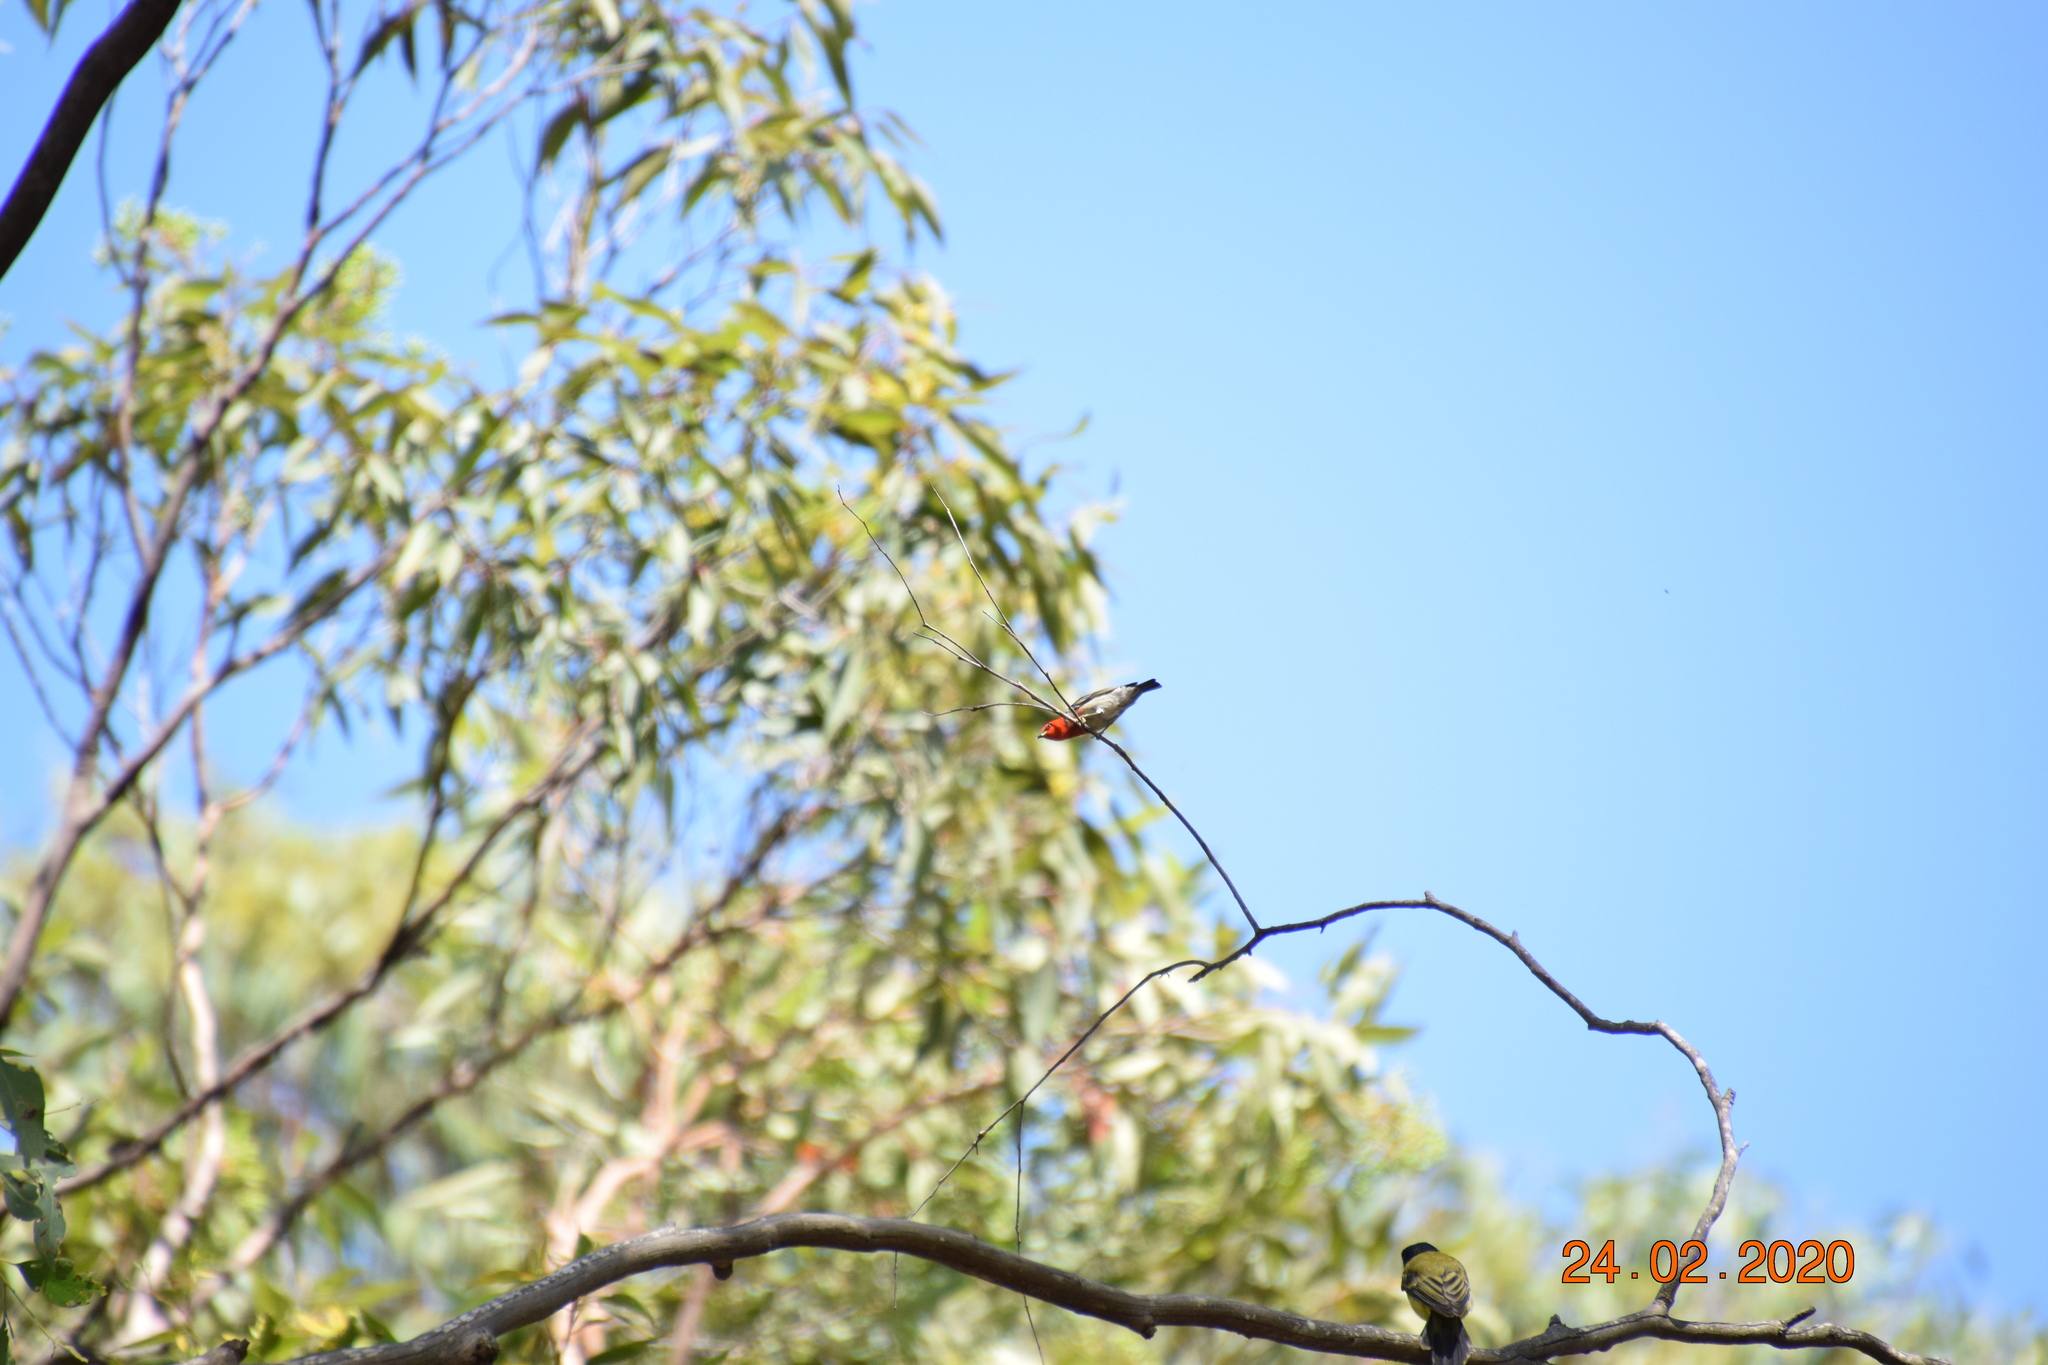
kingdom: Animalia
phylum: Chordata
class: Aves
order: Passeriformes
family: Meliphagidae
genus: Myzomela
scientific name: Myzomela sanguinolenta
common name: Scarlet myzomela
